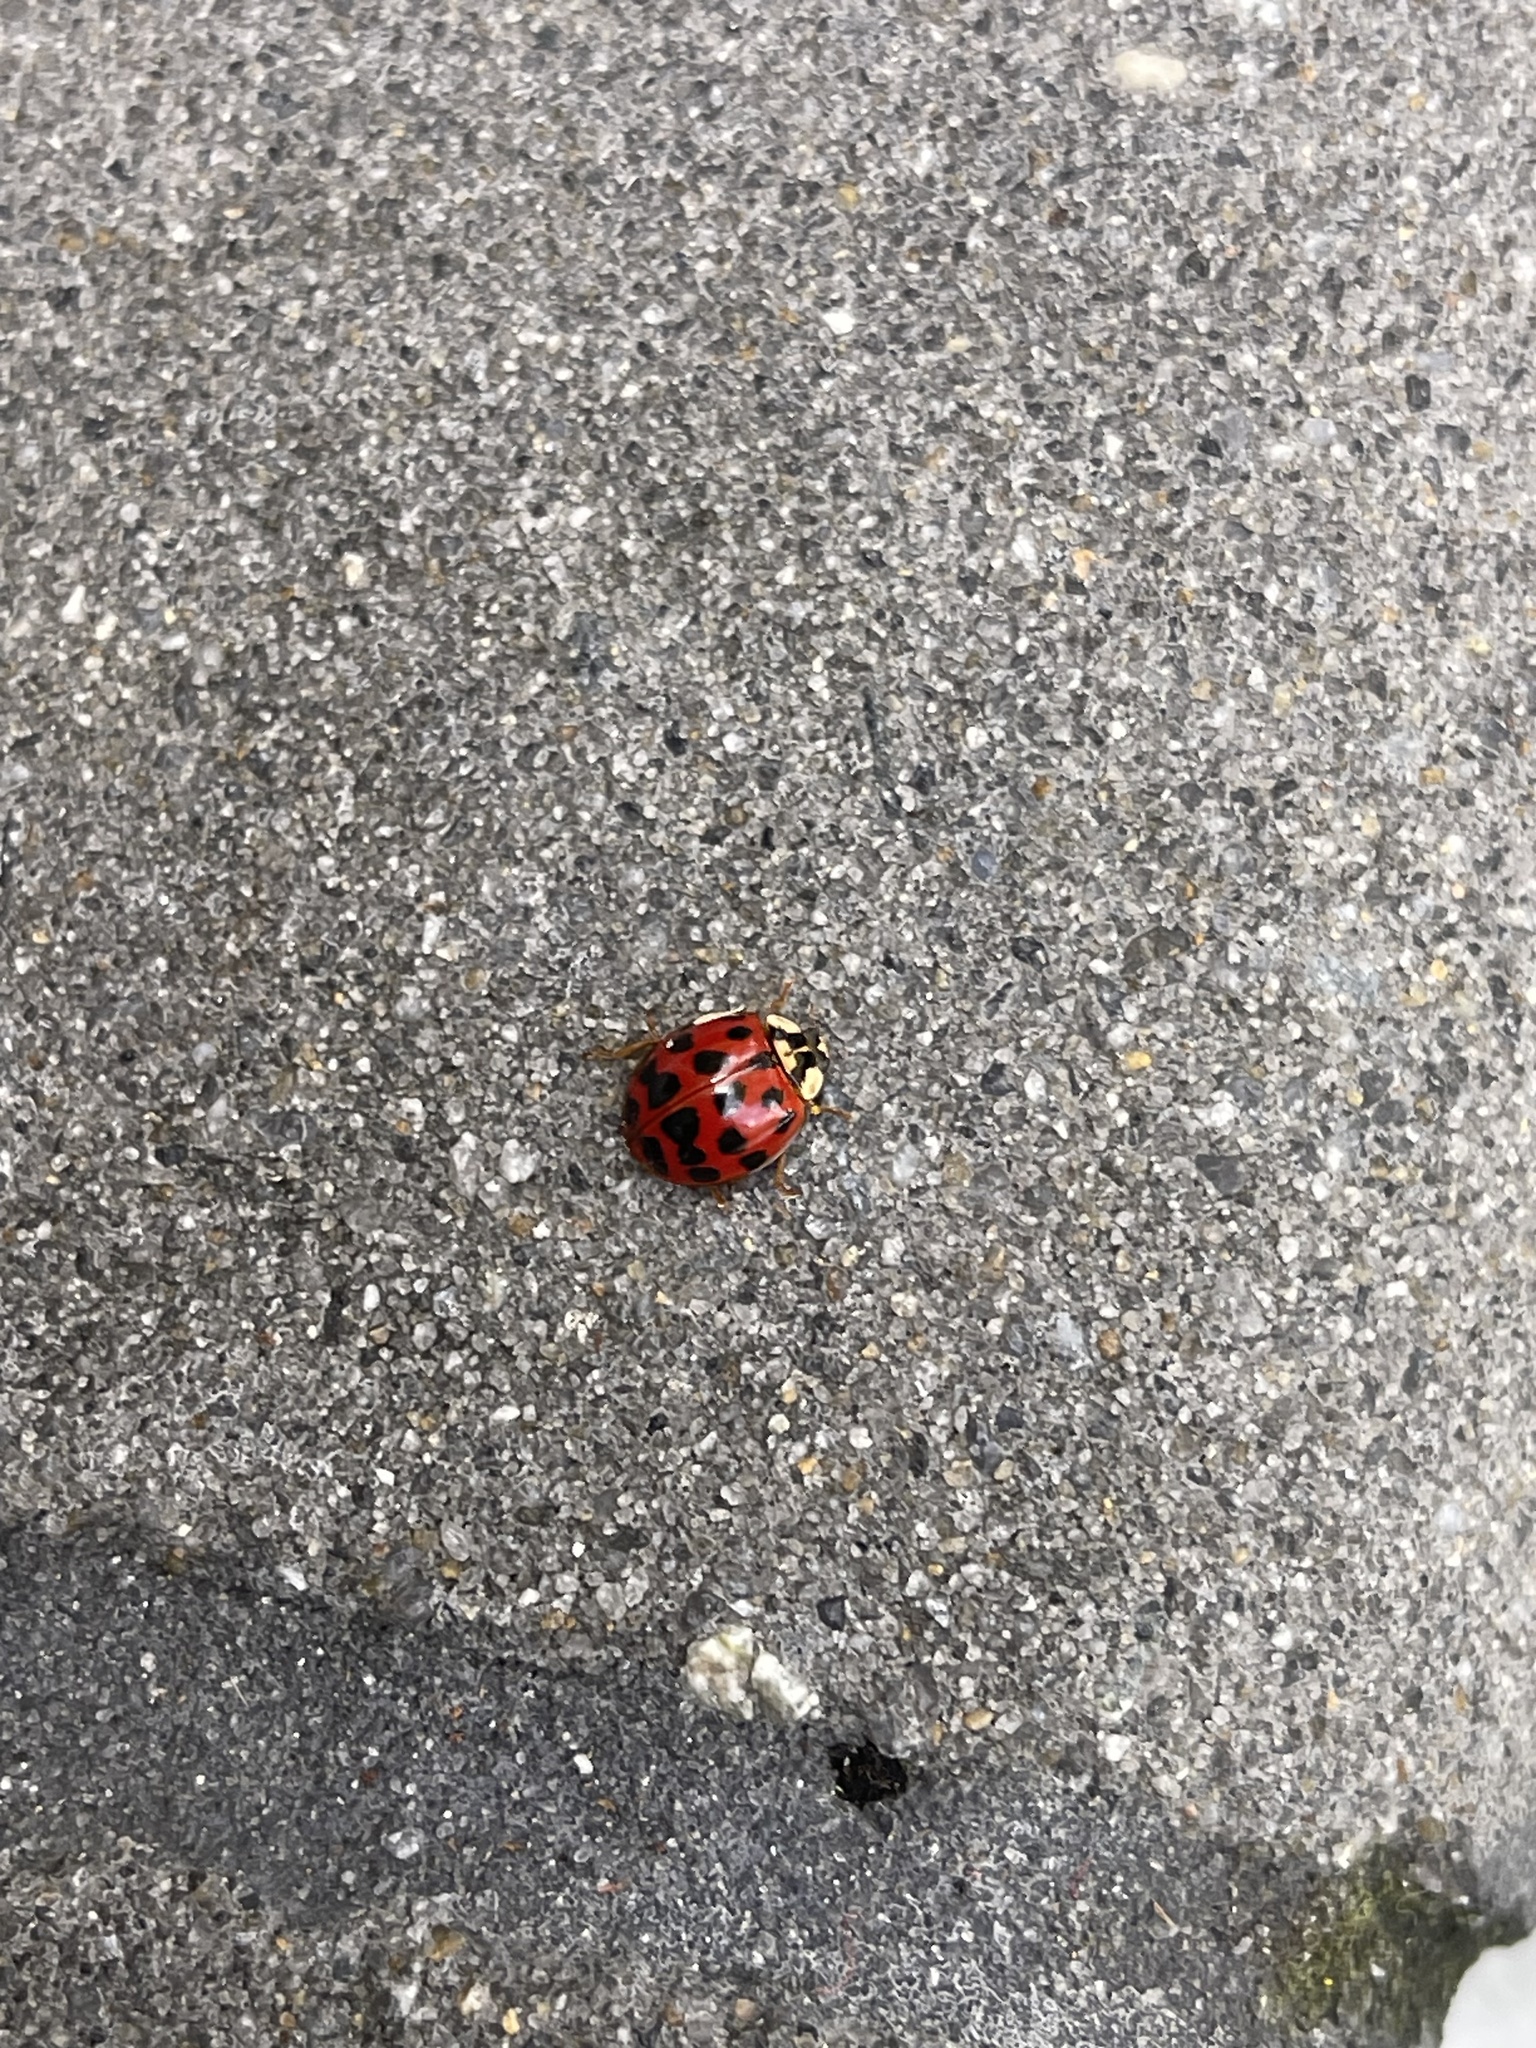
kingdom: Animalia
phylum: Arthropoda
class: Insecta
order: Coleoptera
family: Coccinellidae
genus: Harmonia
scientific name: Harmonia axyridis
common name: Harlequin ladybird
